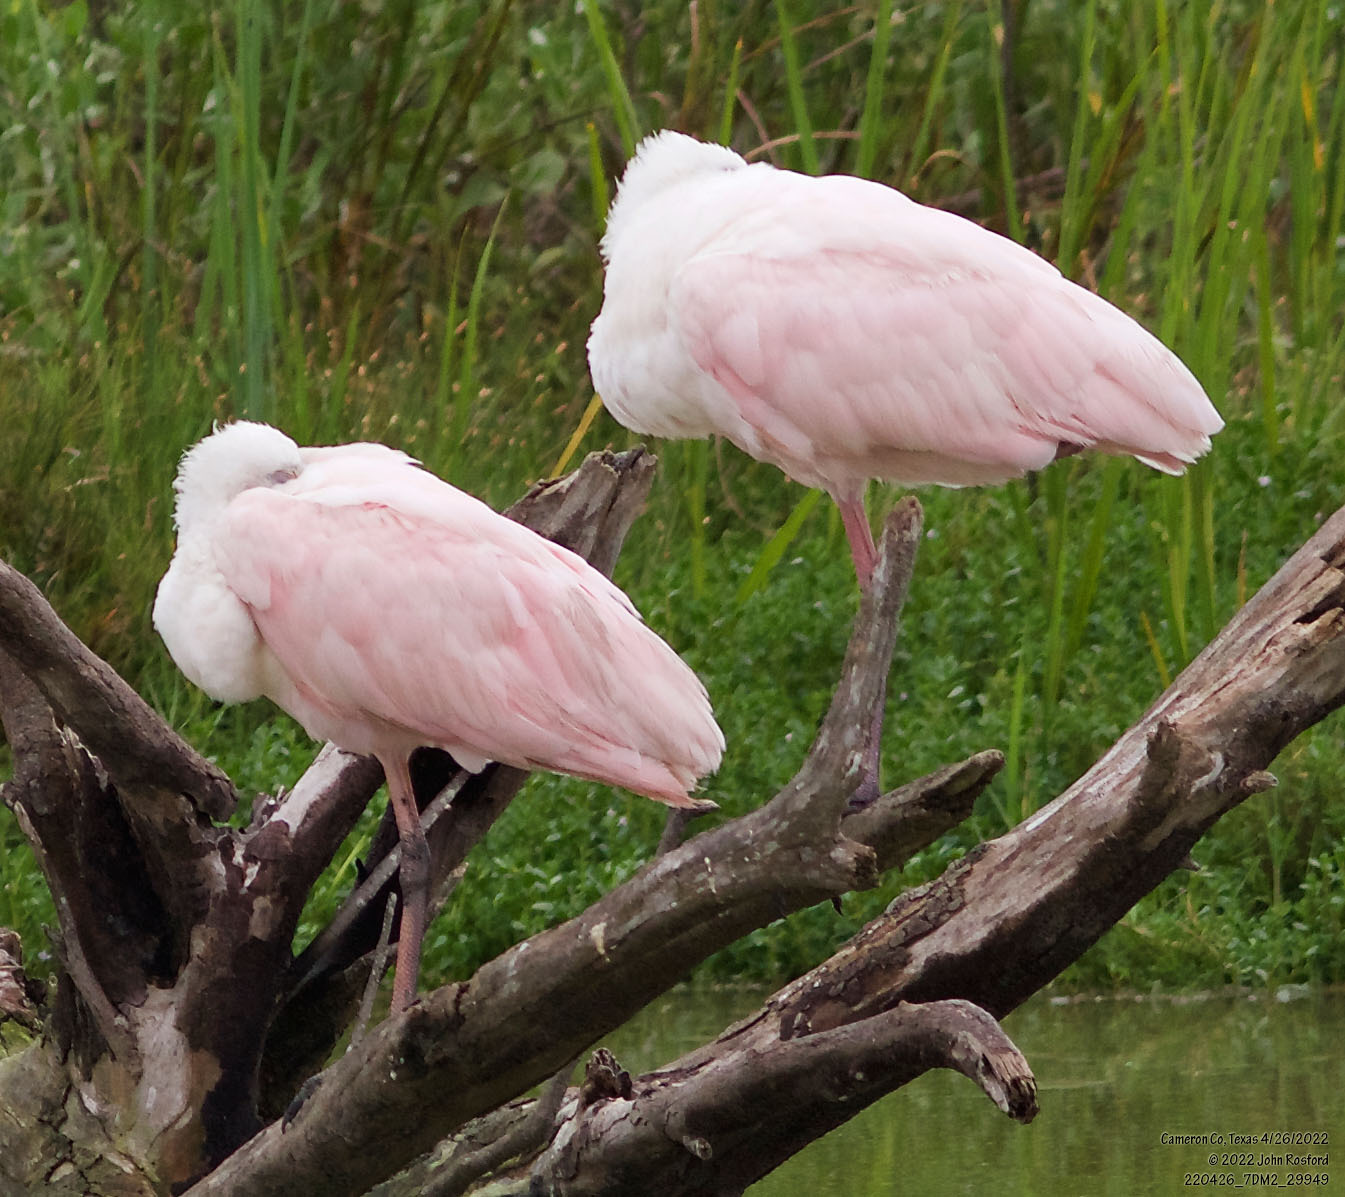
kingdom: Animalia
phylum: Chordata
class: Aves
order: Pelecaniformes
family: Threskiornithidae
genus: Platalea
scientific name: Platalea ajaja
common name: Roseate spoonbill
